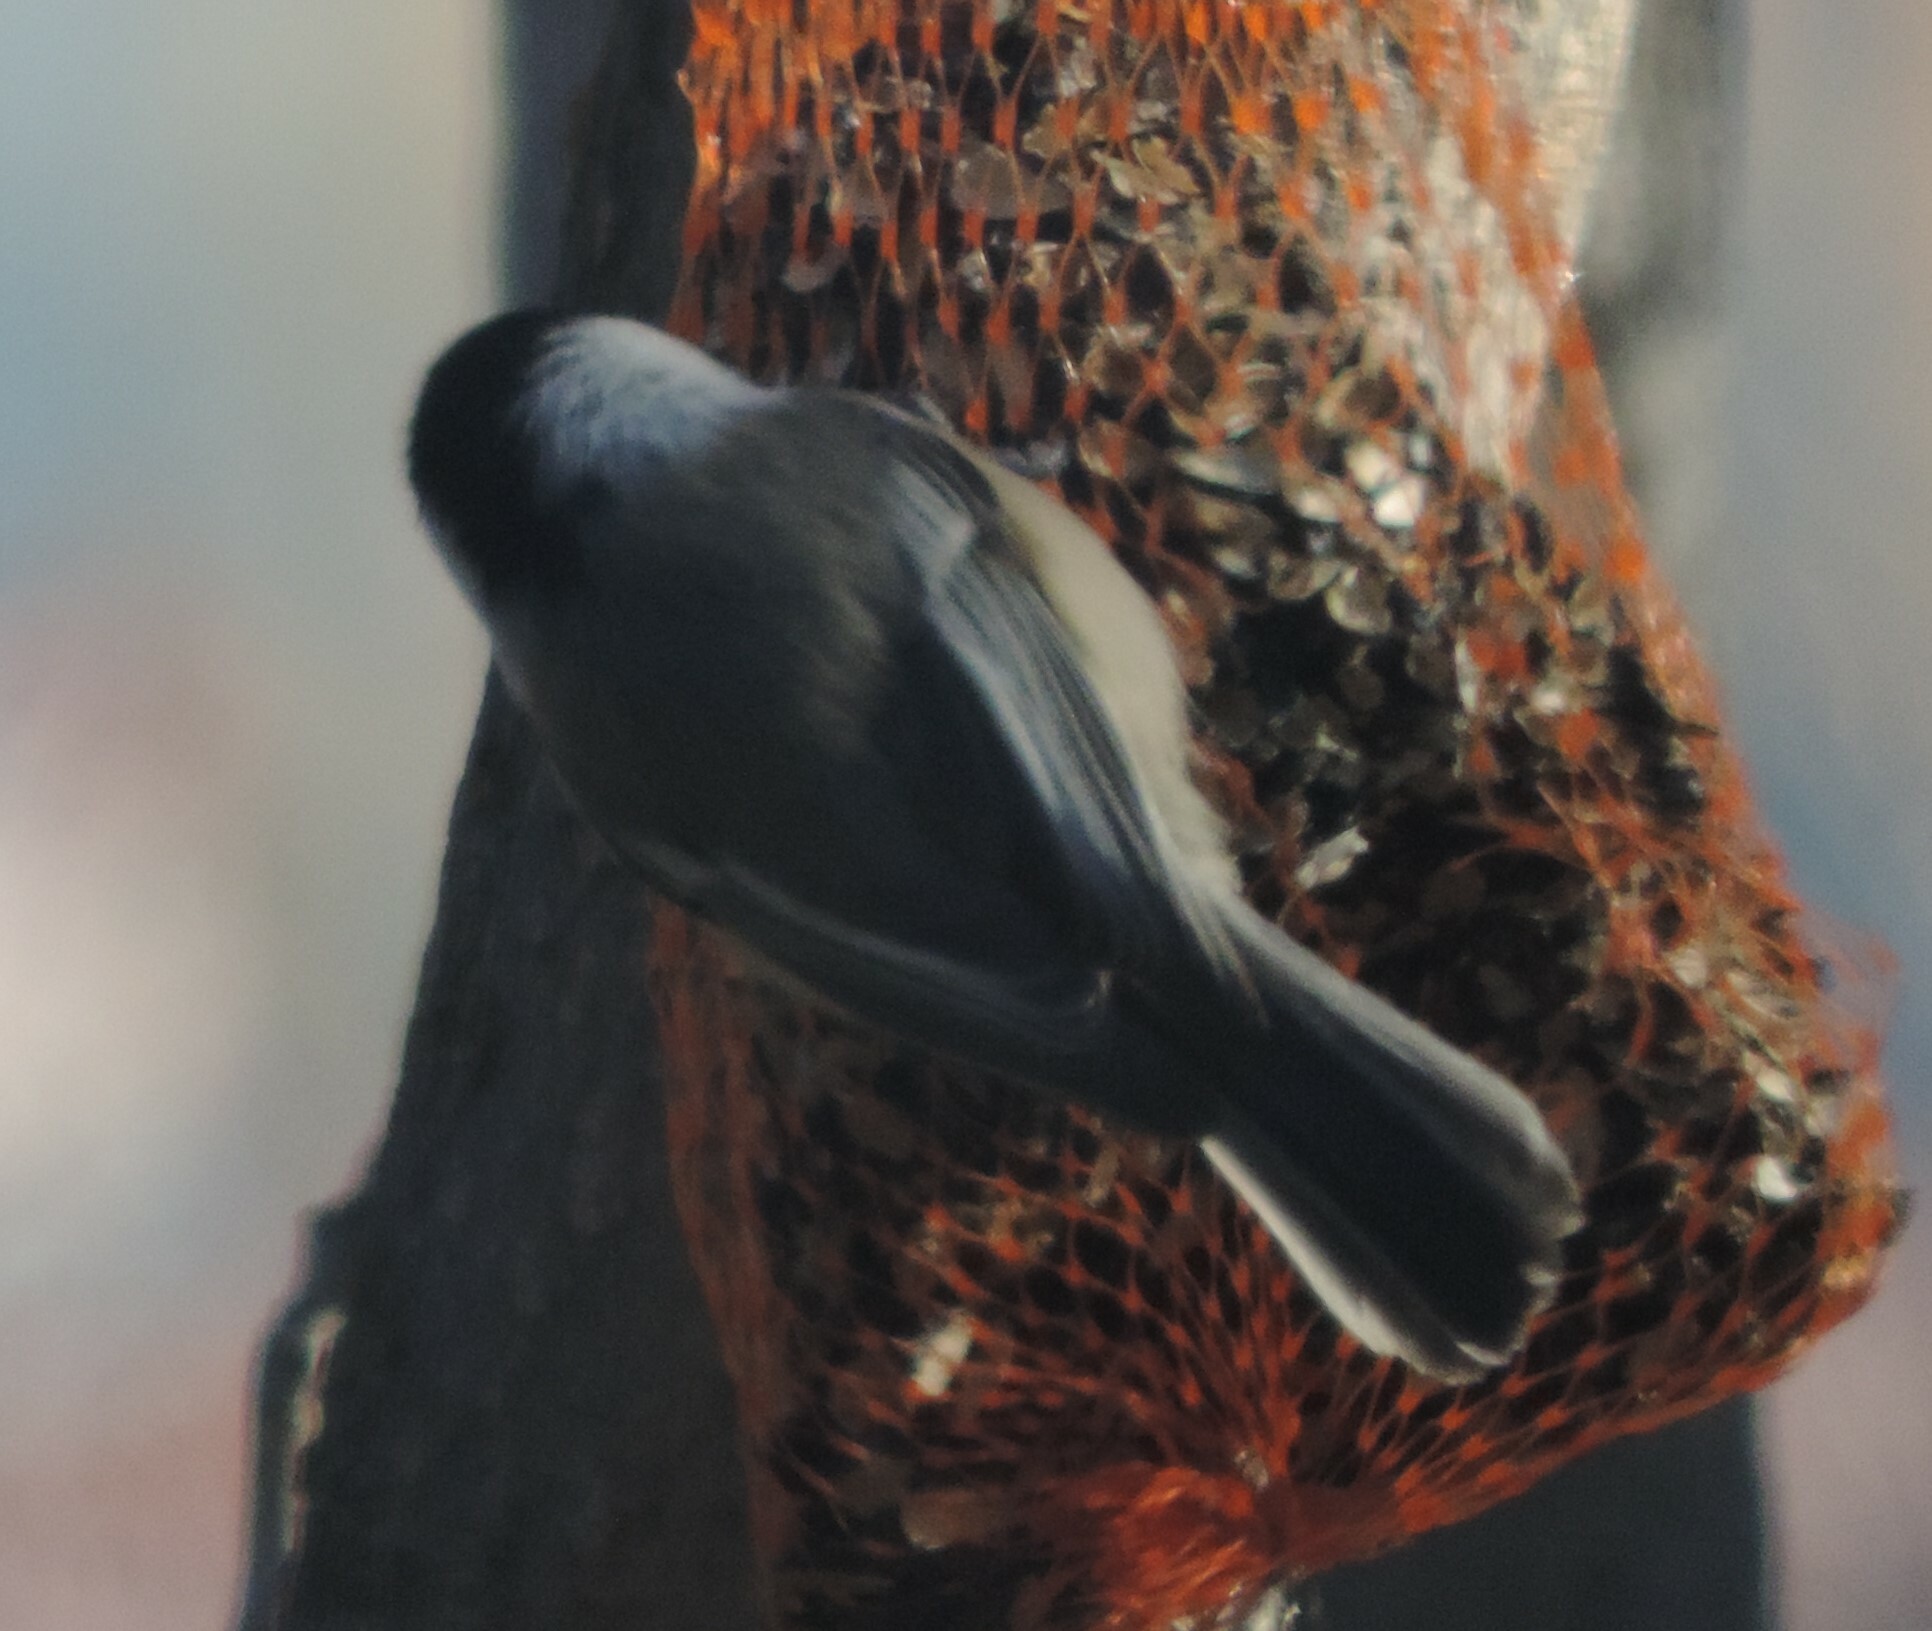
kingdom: Animalia
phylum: Chordata
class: Aves
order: Passeriformes
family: Paridae
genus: Poecile
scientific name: Poecile atricapillus
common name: Black-capped chickadee
